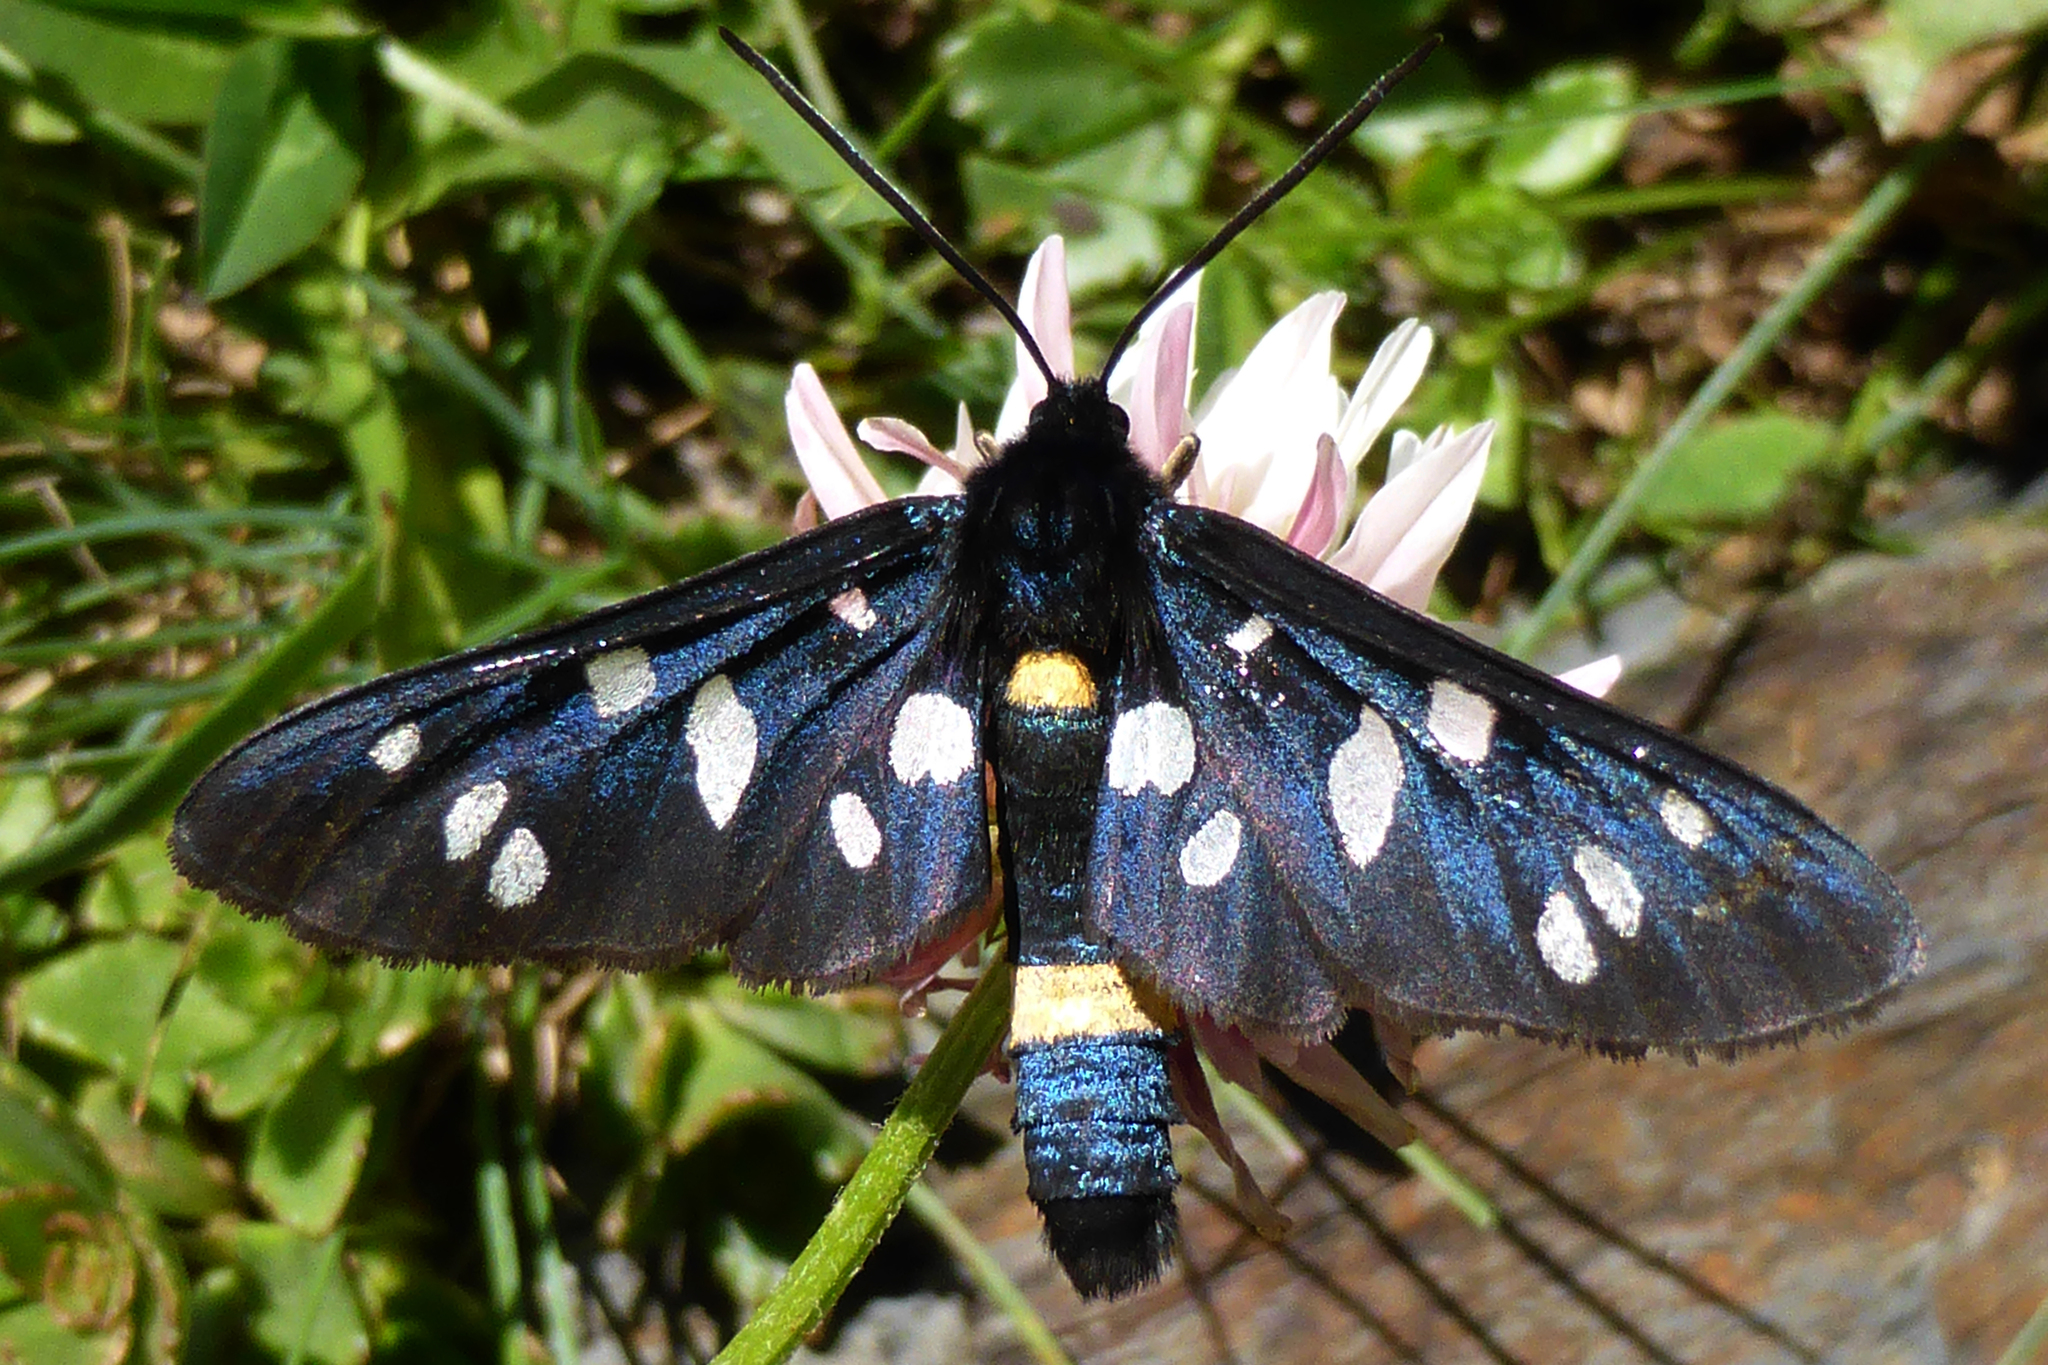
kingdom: Animalia
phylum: Arthropoda
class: Insecta
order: Lepidoptera
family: Erebidae
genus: Amata
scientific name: Amata nigricornis
